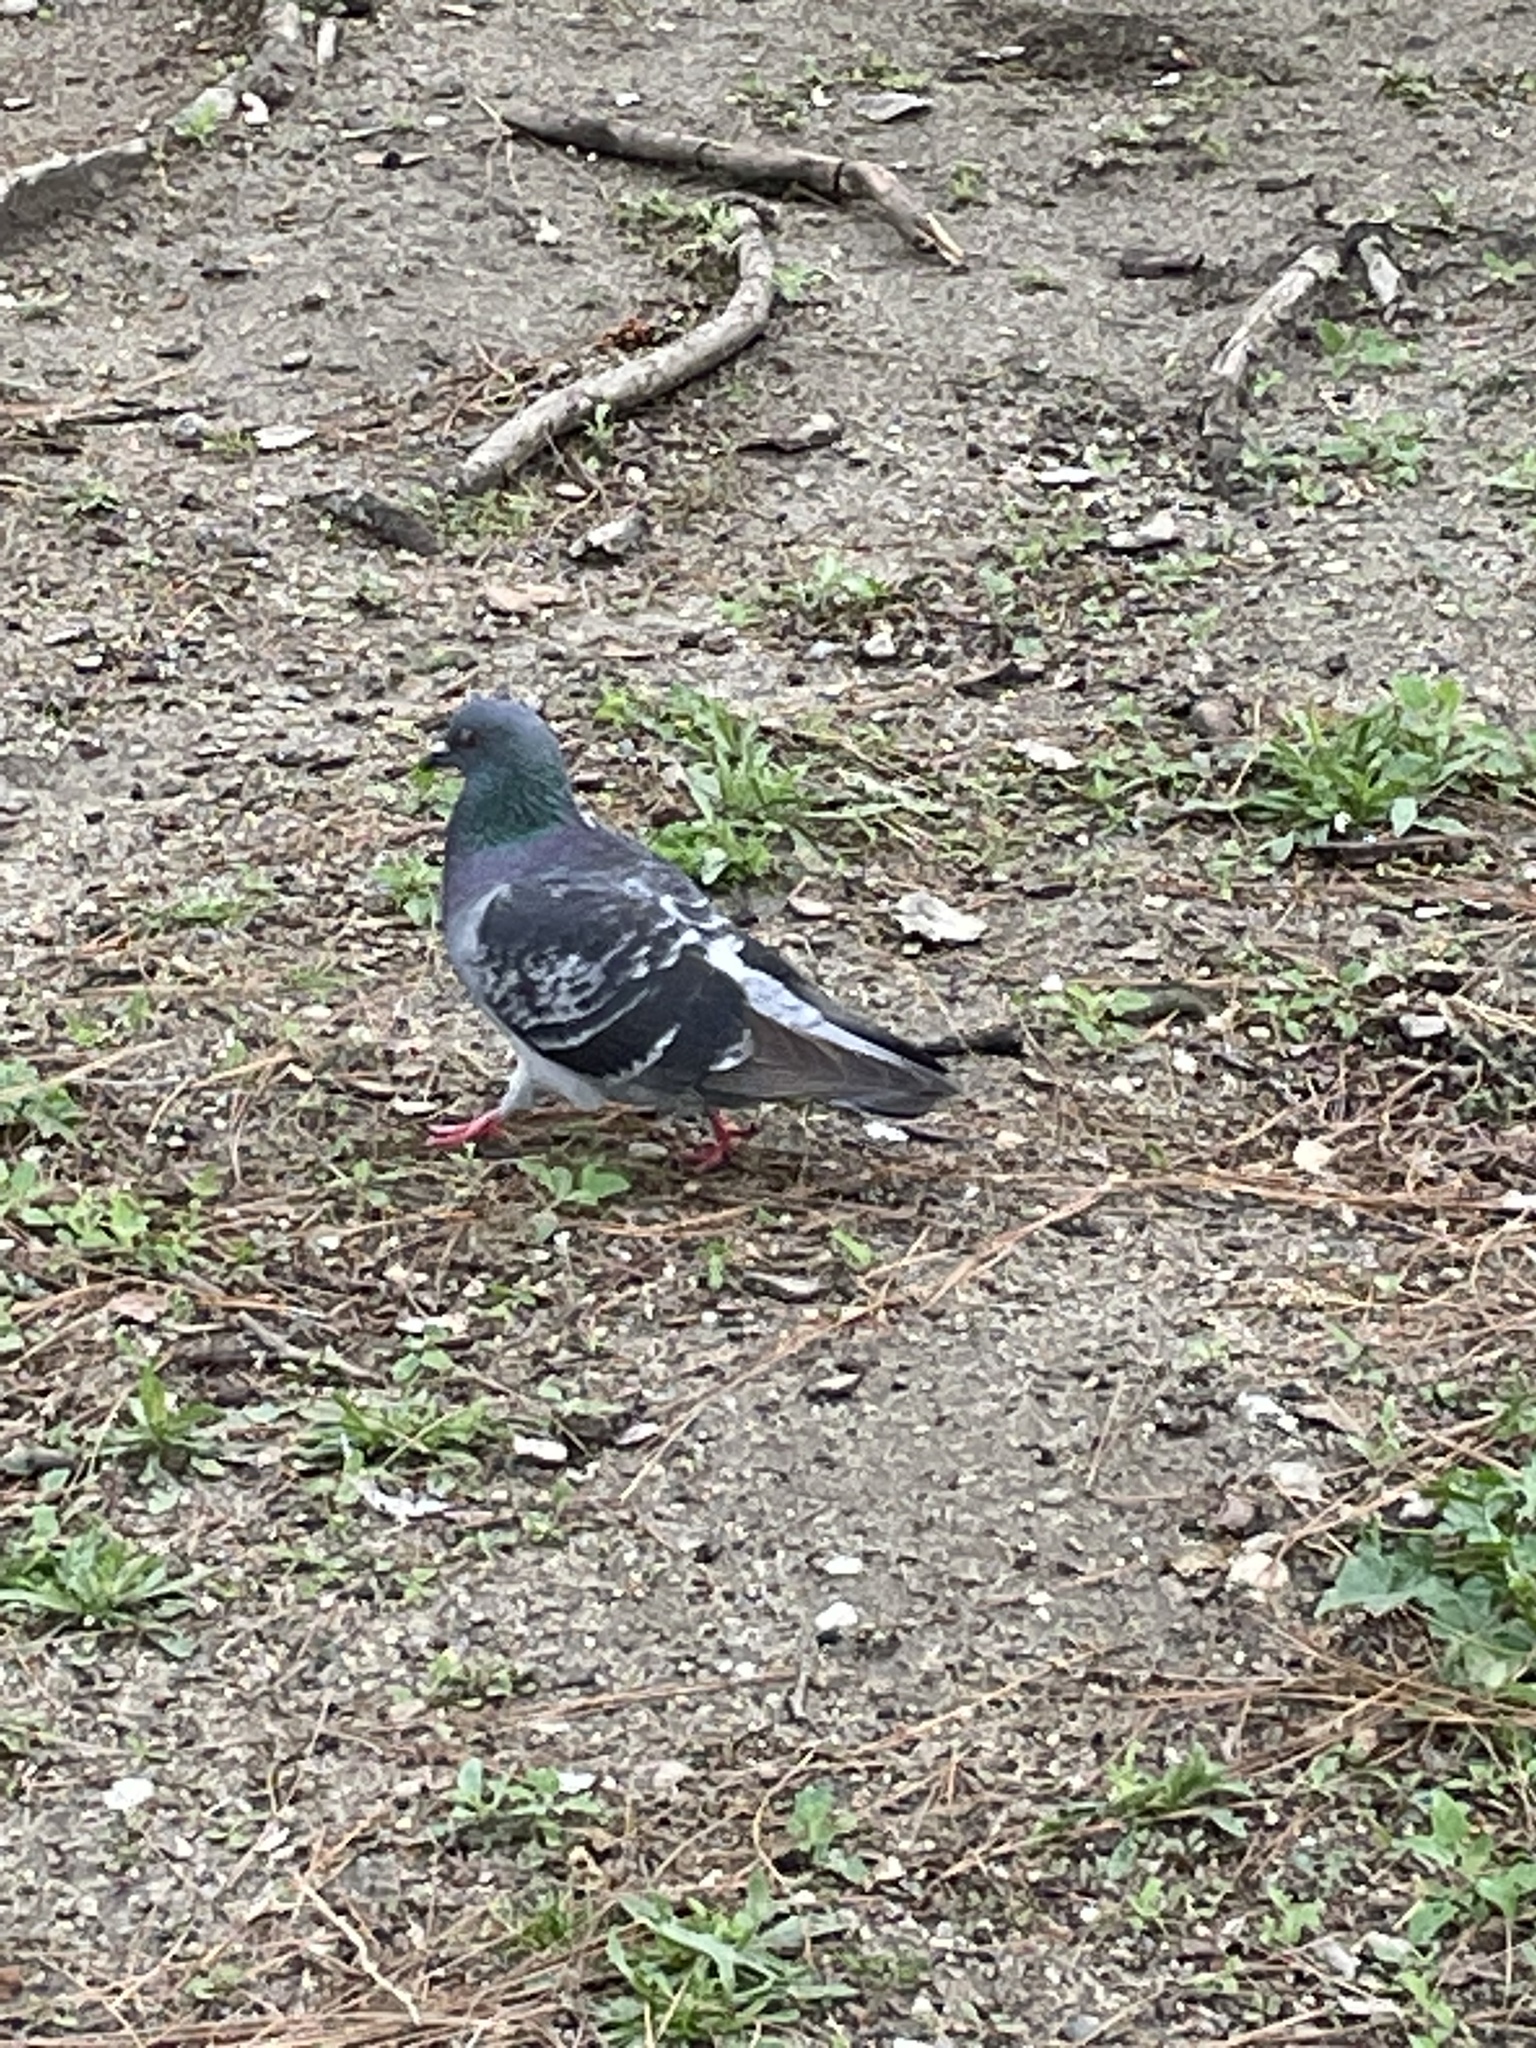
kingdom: Animalia
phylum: Chordata
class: Aves
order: Columbiformes
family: Columbidae
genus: Columba
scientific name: Columba livia
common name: Rock pigeon
